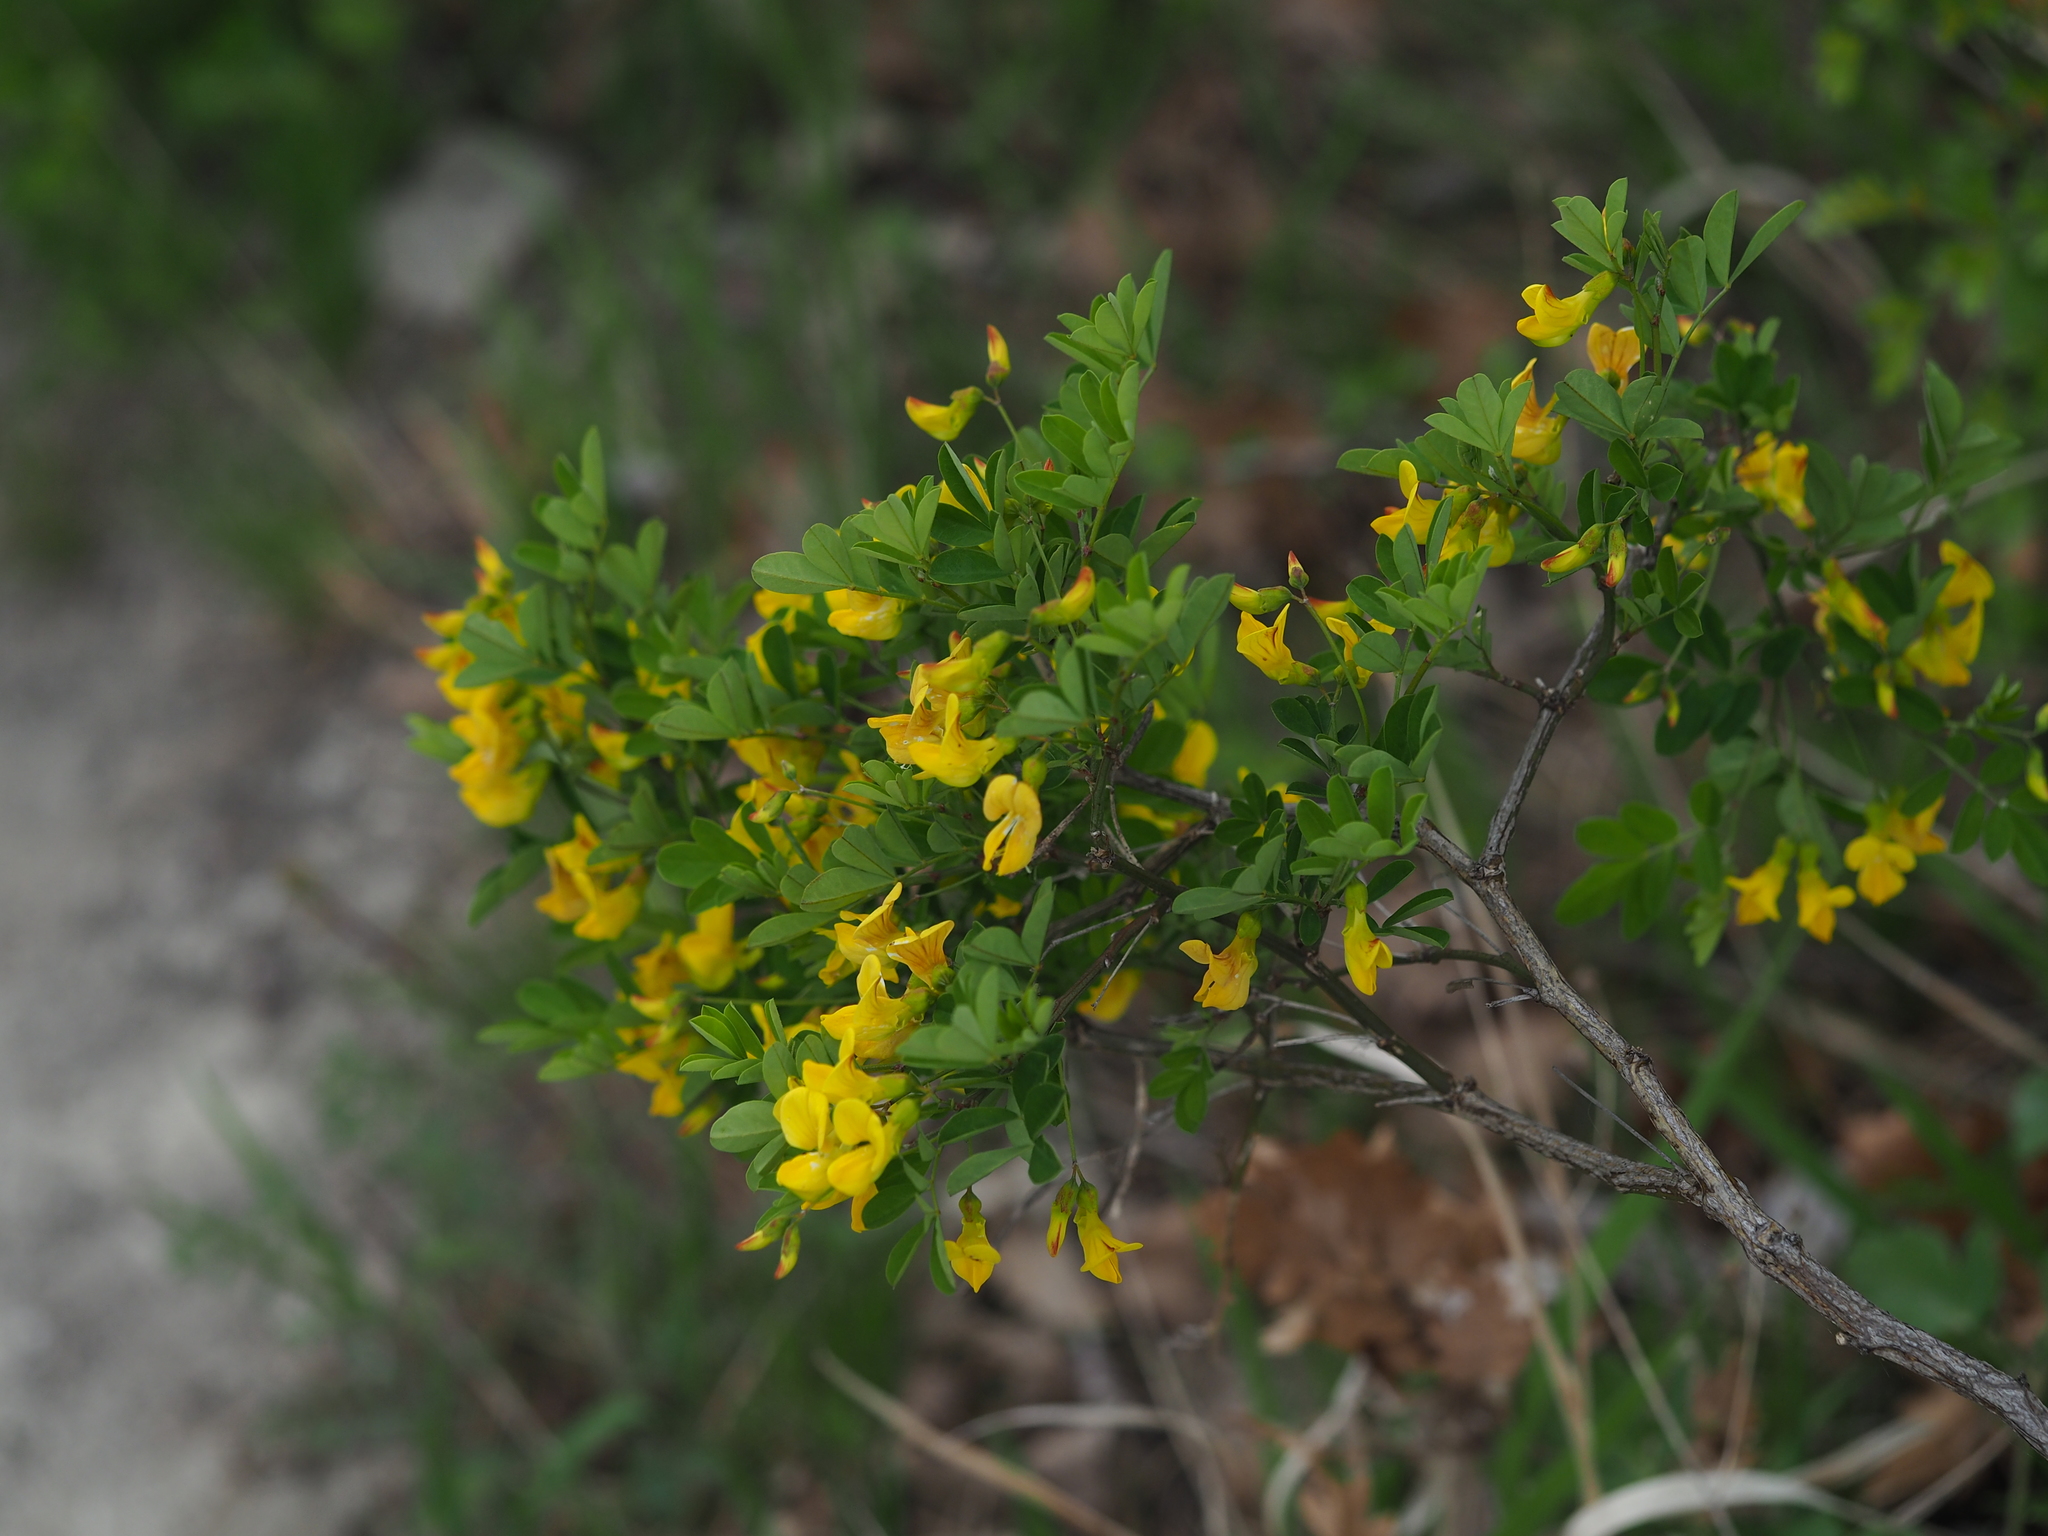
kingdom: Plantae
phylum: Tracheophyta
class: Magnoliopsida
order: Fabales
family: Fabaceae
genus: Hippocrepis
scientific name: Hippocrepis emerus
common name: Scorpion senna
